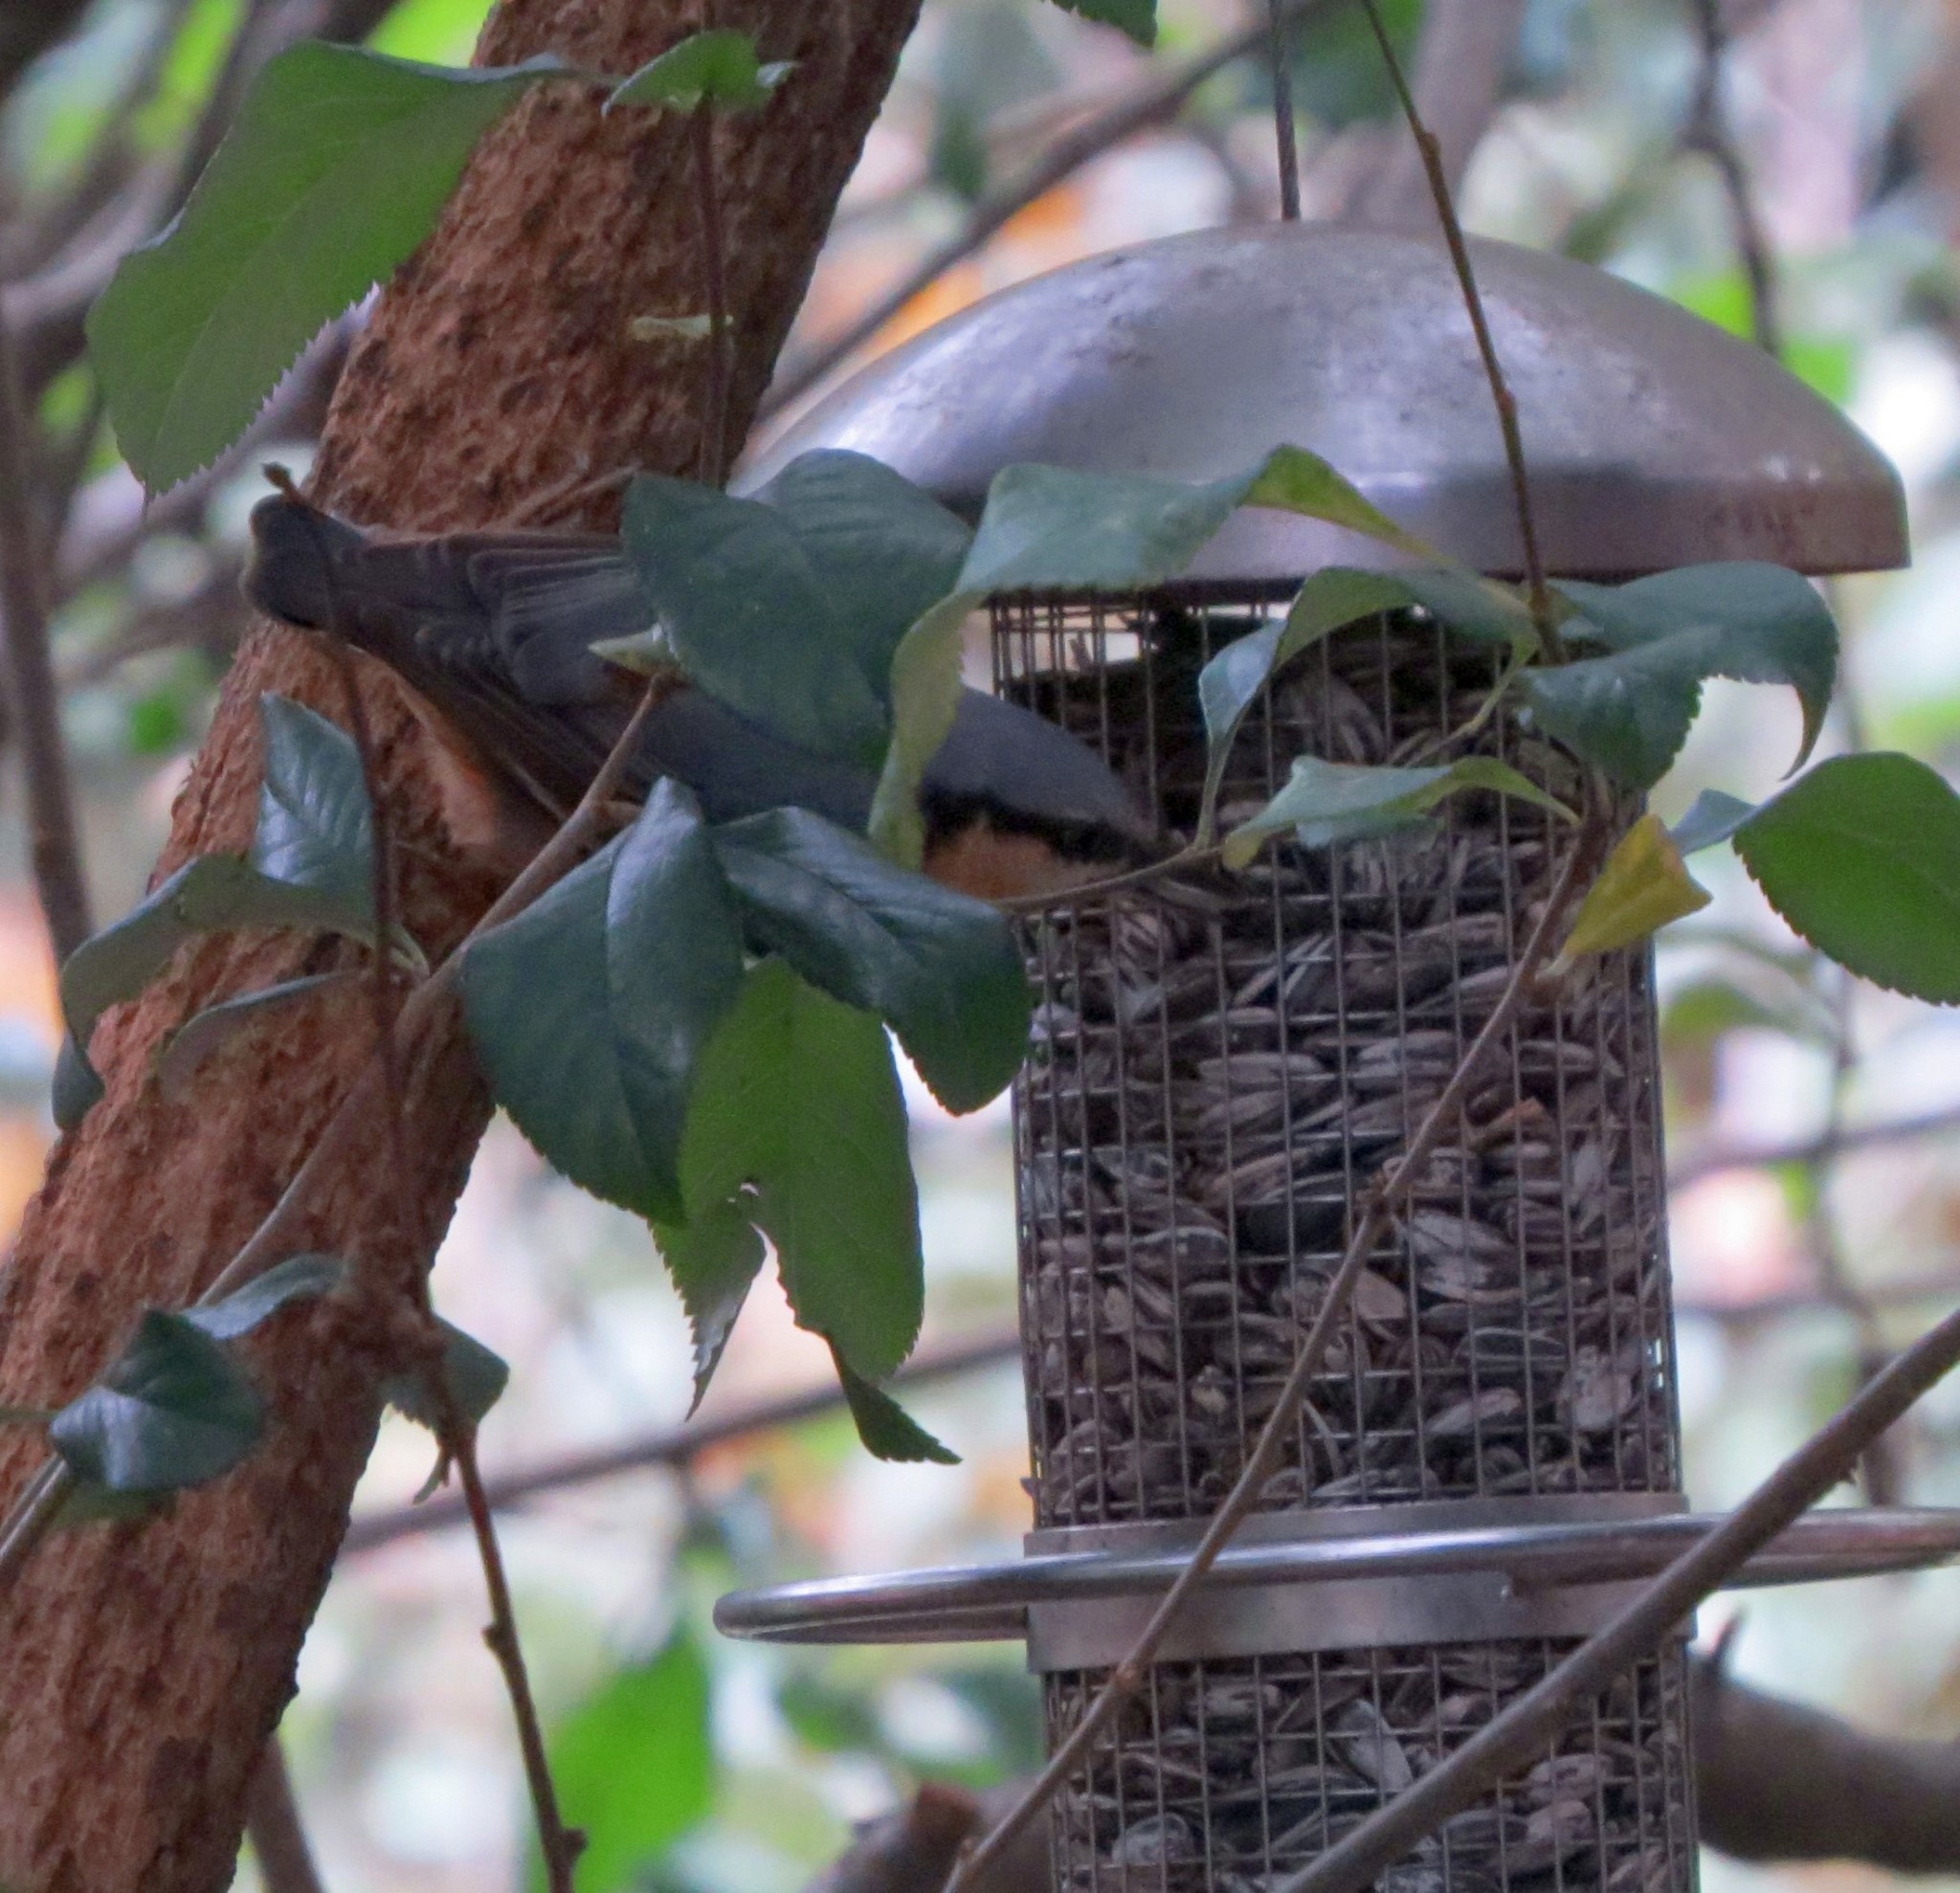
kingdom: Animalia
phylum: Chordata
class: Aves
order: Passeriformes
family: Sittidae
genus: Sitta
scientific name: Sitta europaea
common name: Eurasian nuthatch
